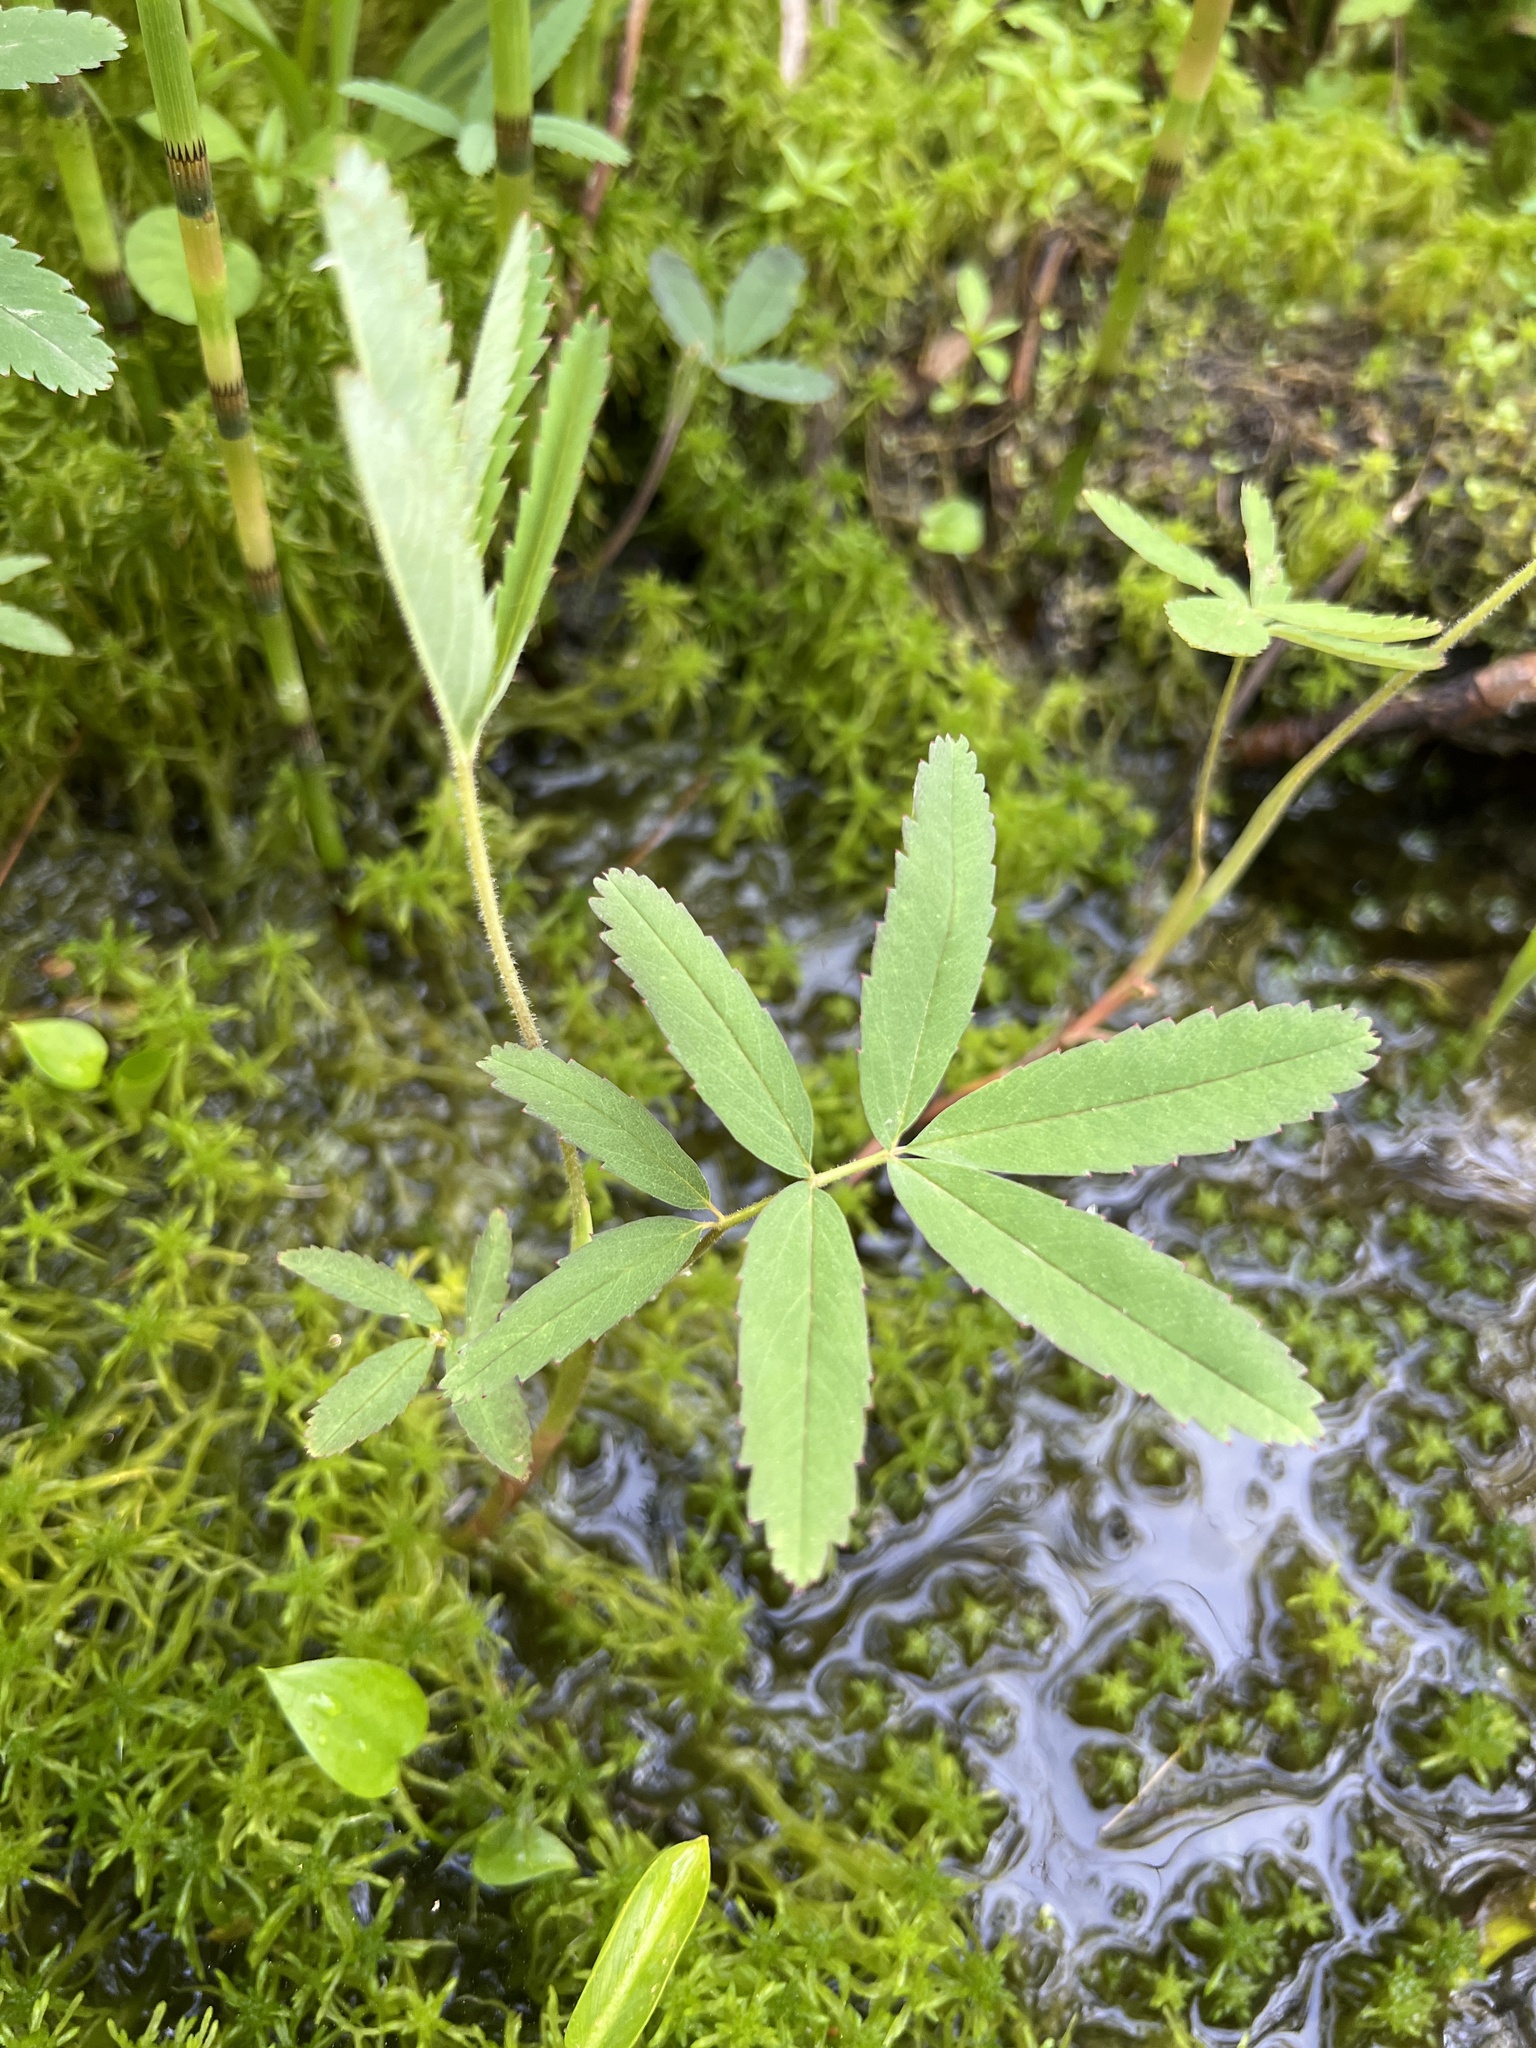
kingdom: Plantae
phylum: Tracheophyta
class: Magnoliopsida
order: Rosales
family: Rosaceae
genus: Comarum
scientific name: Comarum palustre
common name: Marsh cinquefoil
